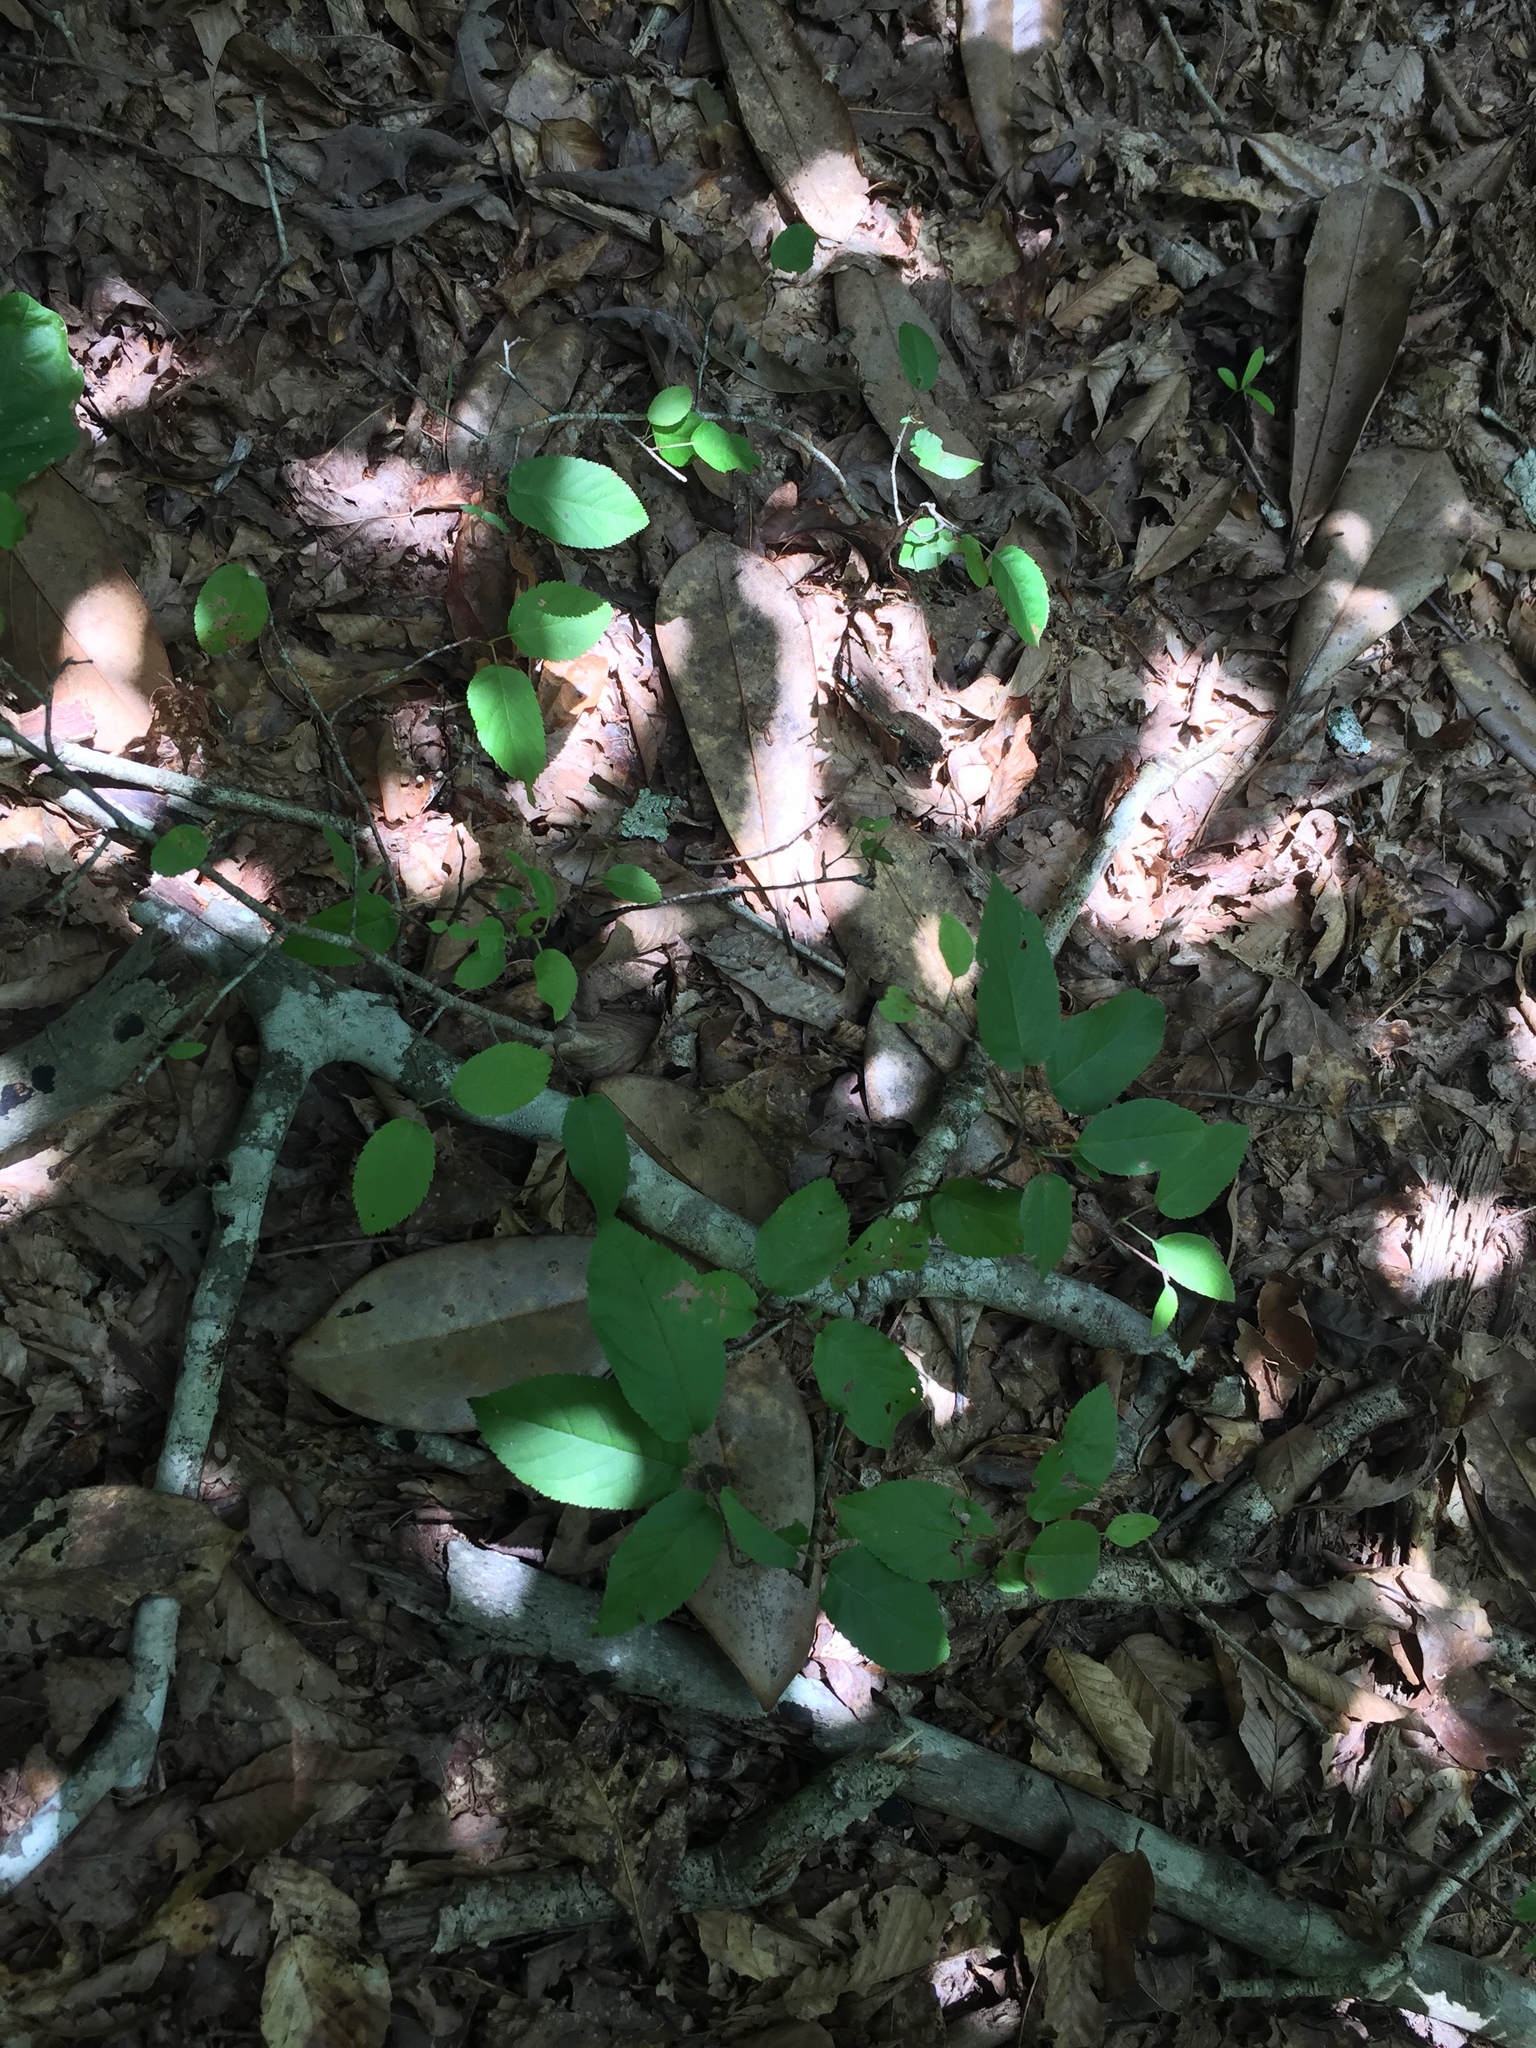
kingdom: Plantae
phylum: Tracheophyta
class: Magnoliopsida
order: Rosales
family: Rosaceae
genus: Amelanchier
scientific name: Amelanchier arborea
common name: Downy serviceberry
